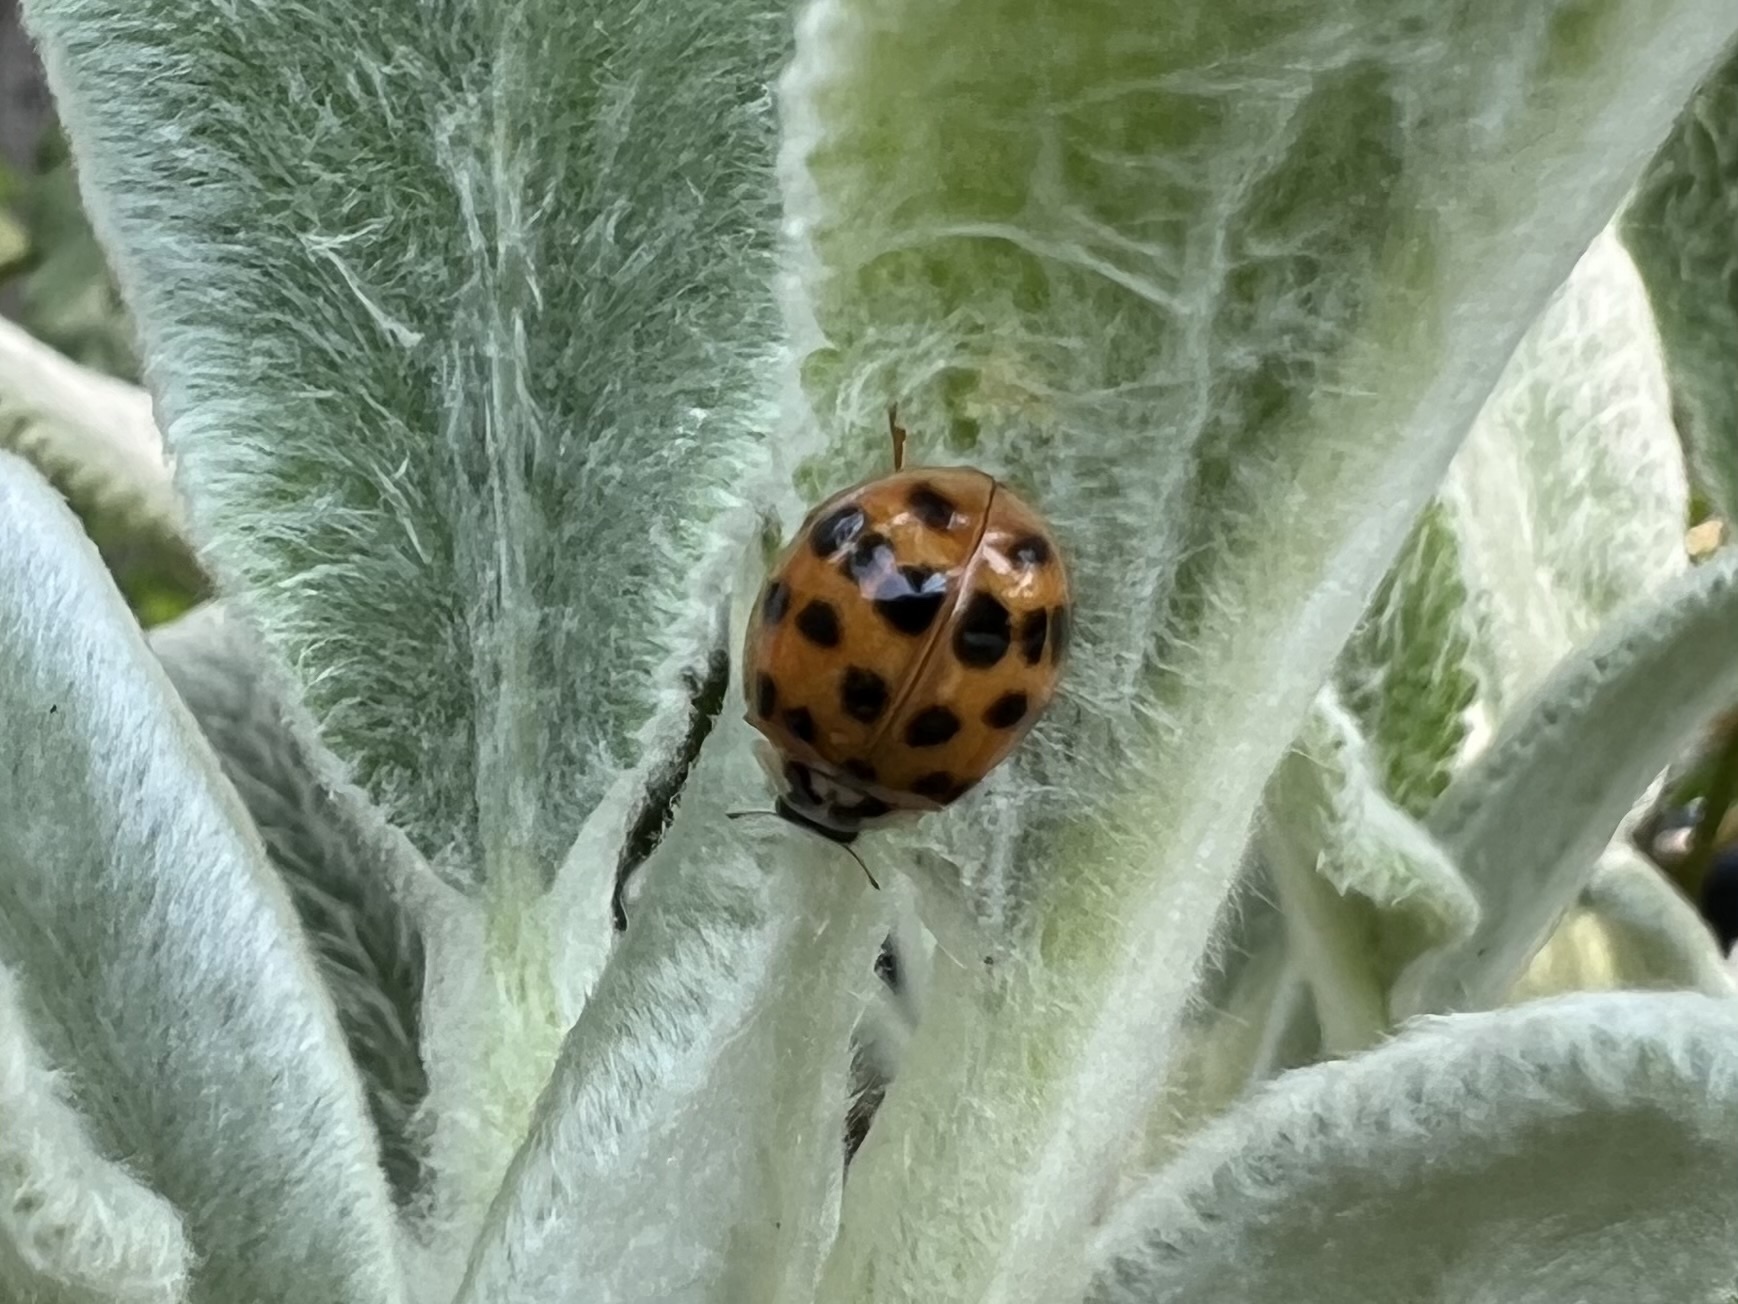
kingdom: Animalia
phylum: Arthropoda
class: Insecta
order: Coleoptera
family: Coccinellidae
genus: Harmonia
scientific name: Harmonia axyridis
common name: Harlequin ladybird
